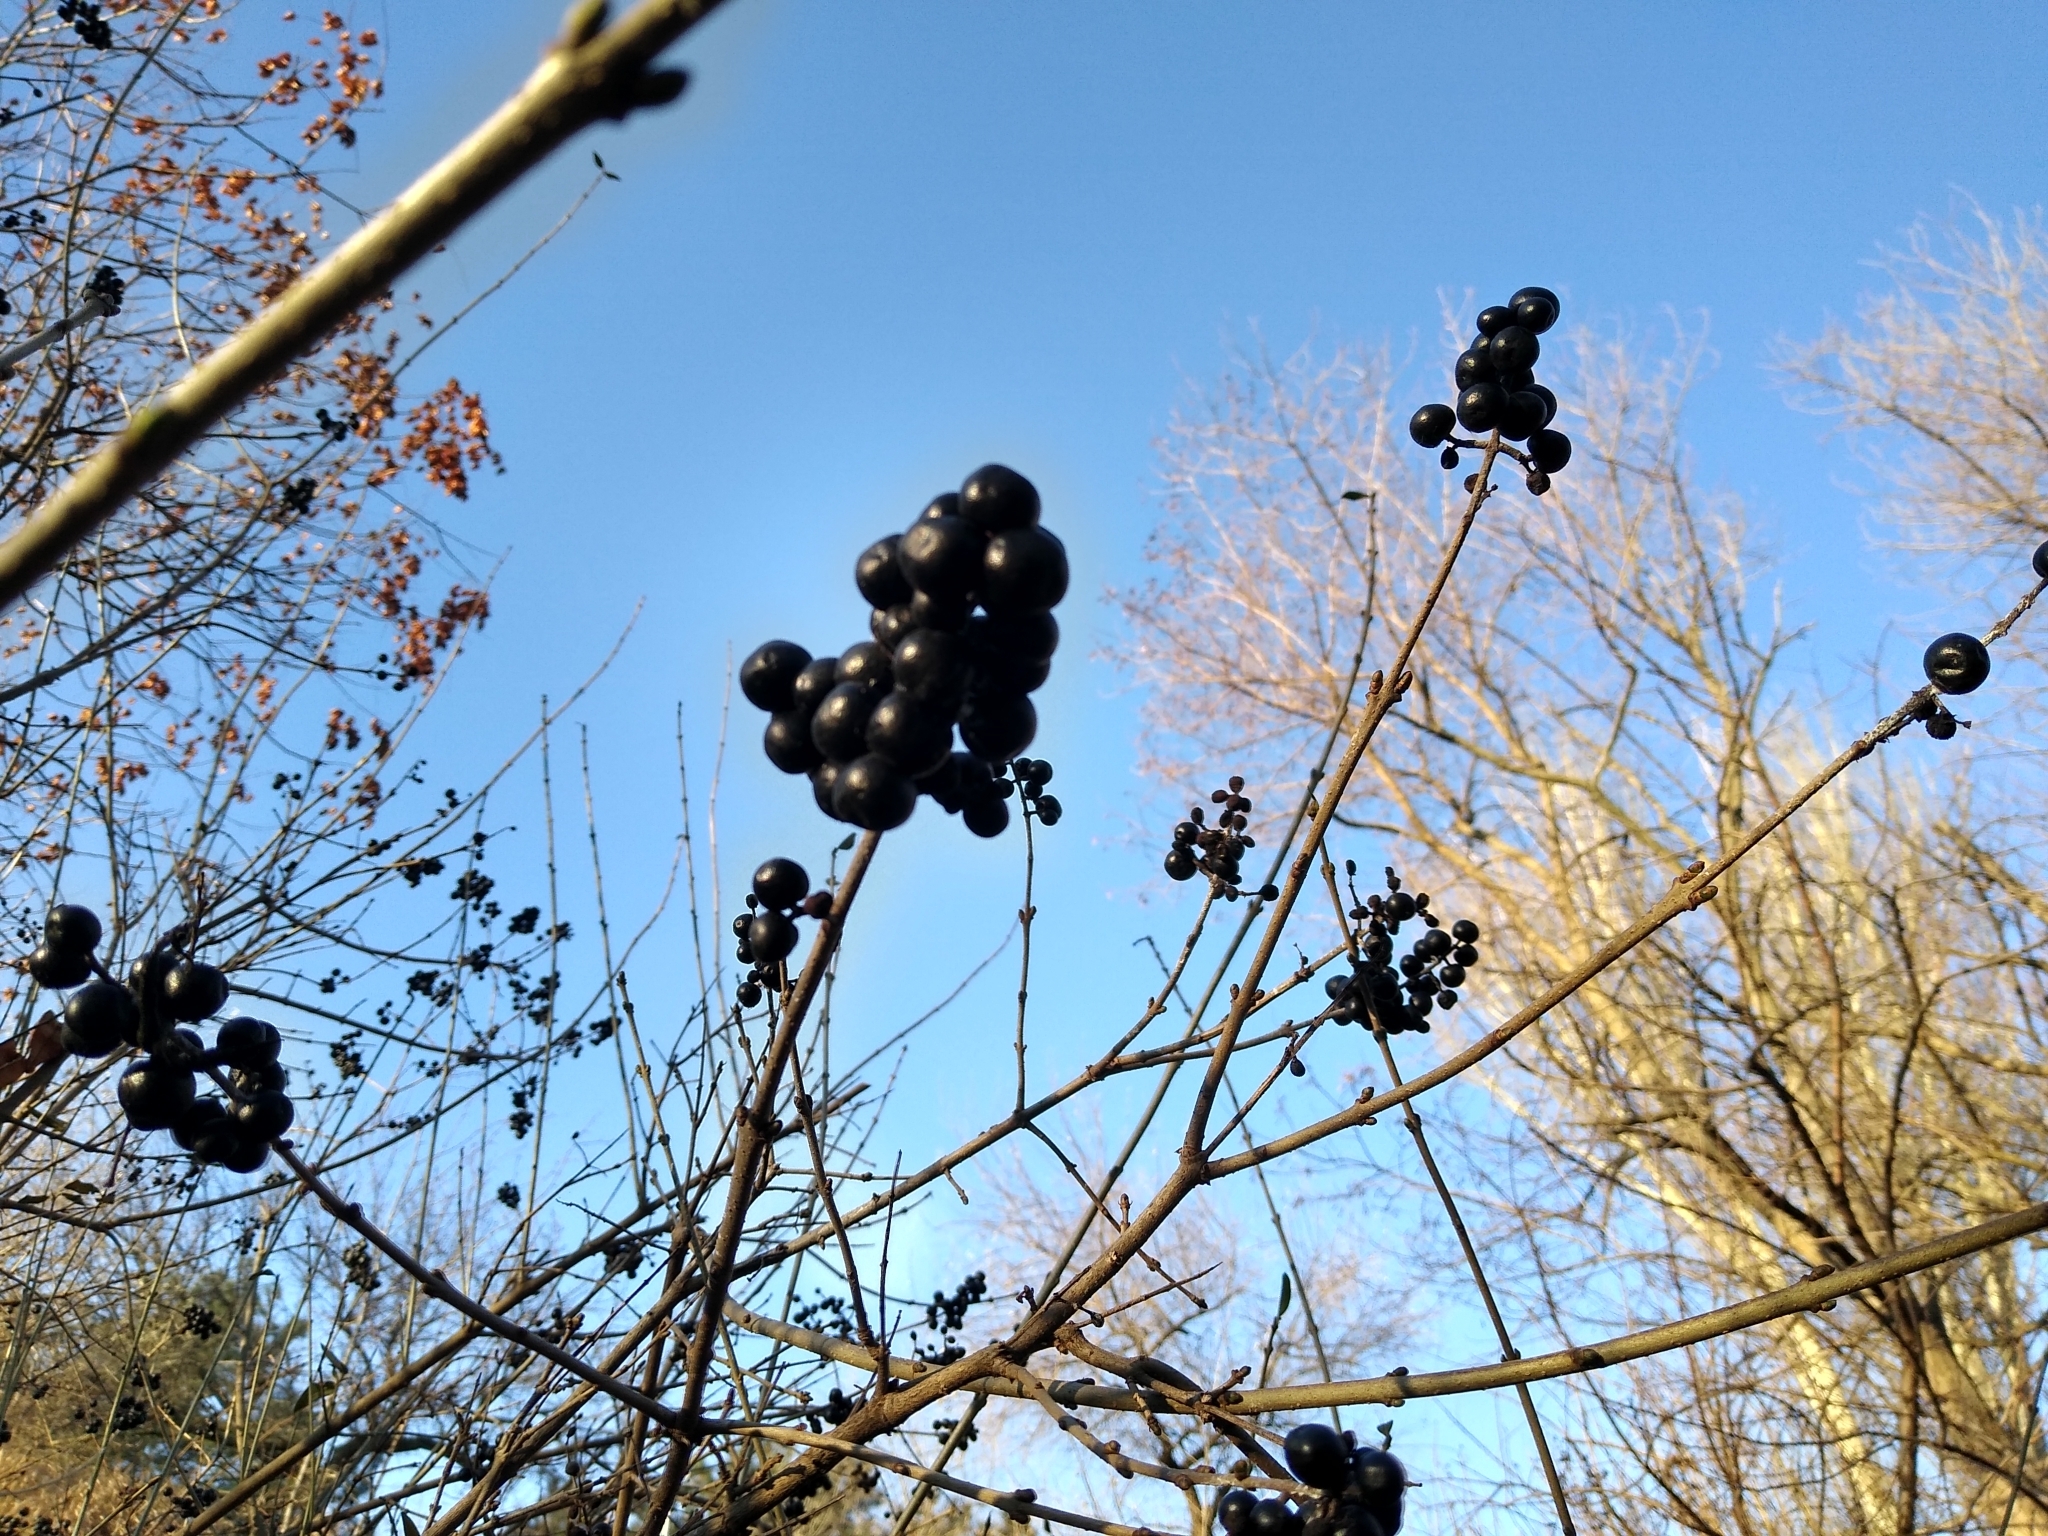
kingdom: Plantae
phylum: Tracheophyta
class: Magnoliopsida
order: Lamiales
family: Oleaceae
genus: Ligustrum
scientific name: Ligustrum vulgare
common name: Wild privet
